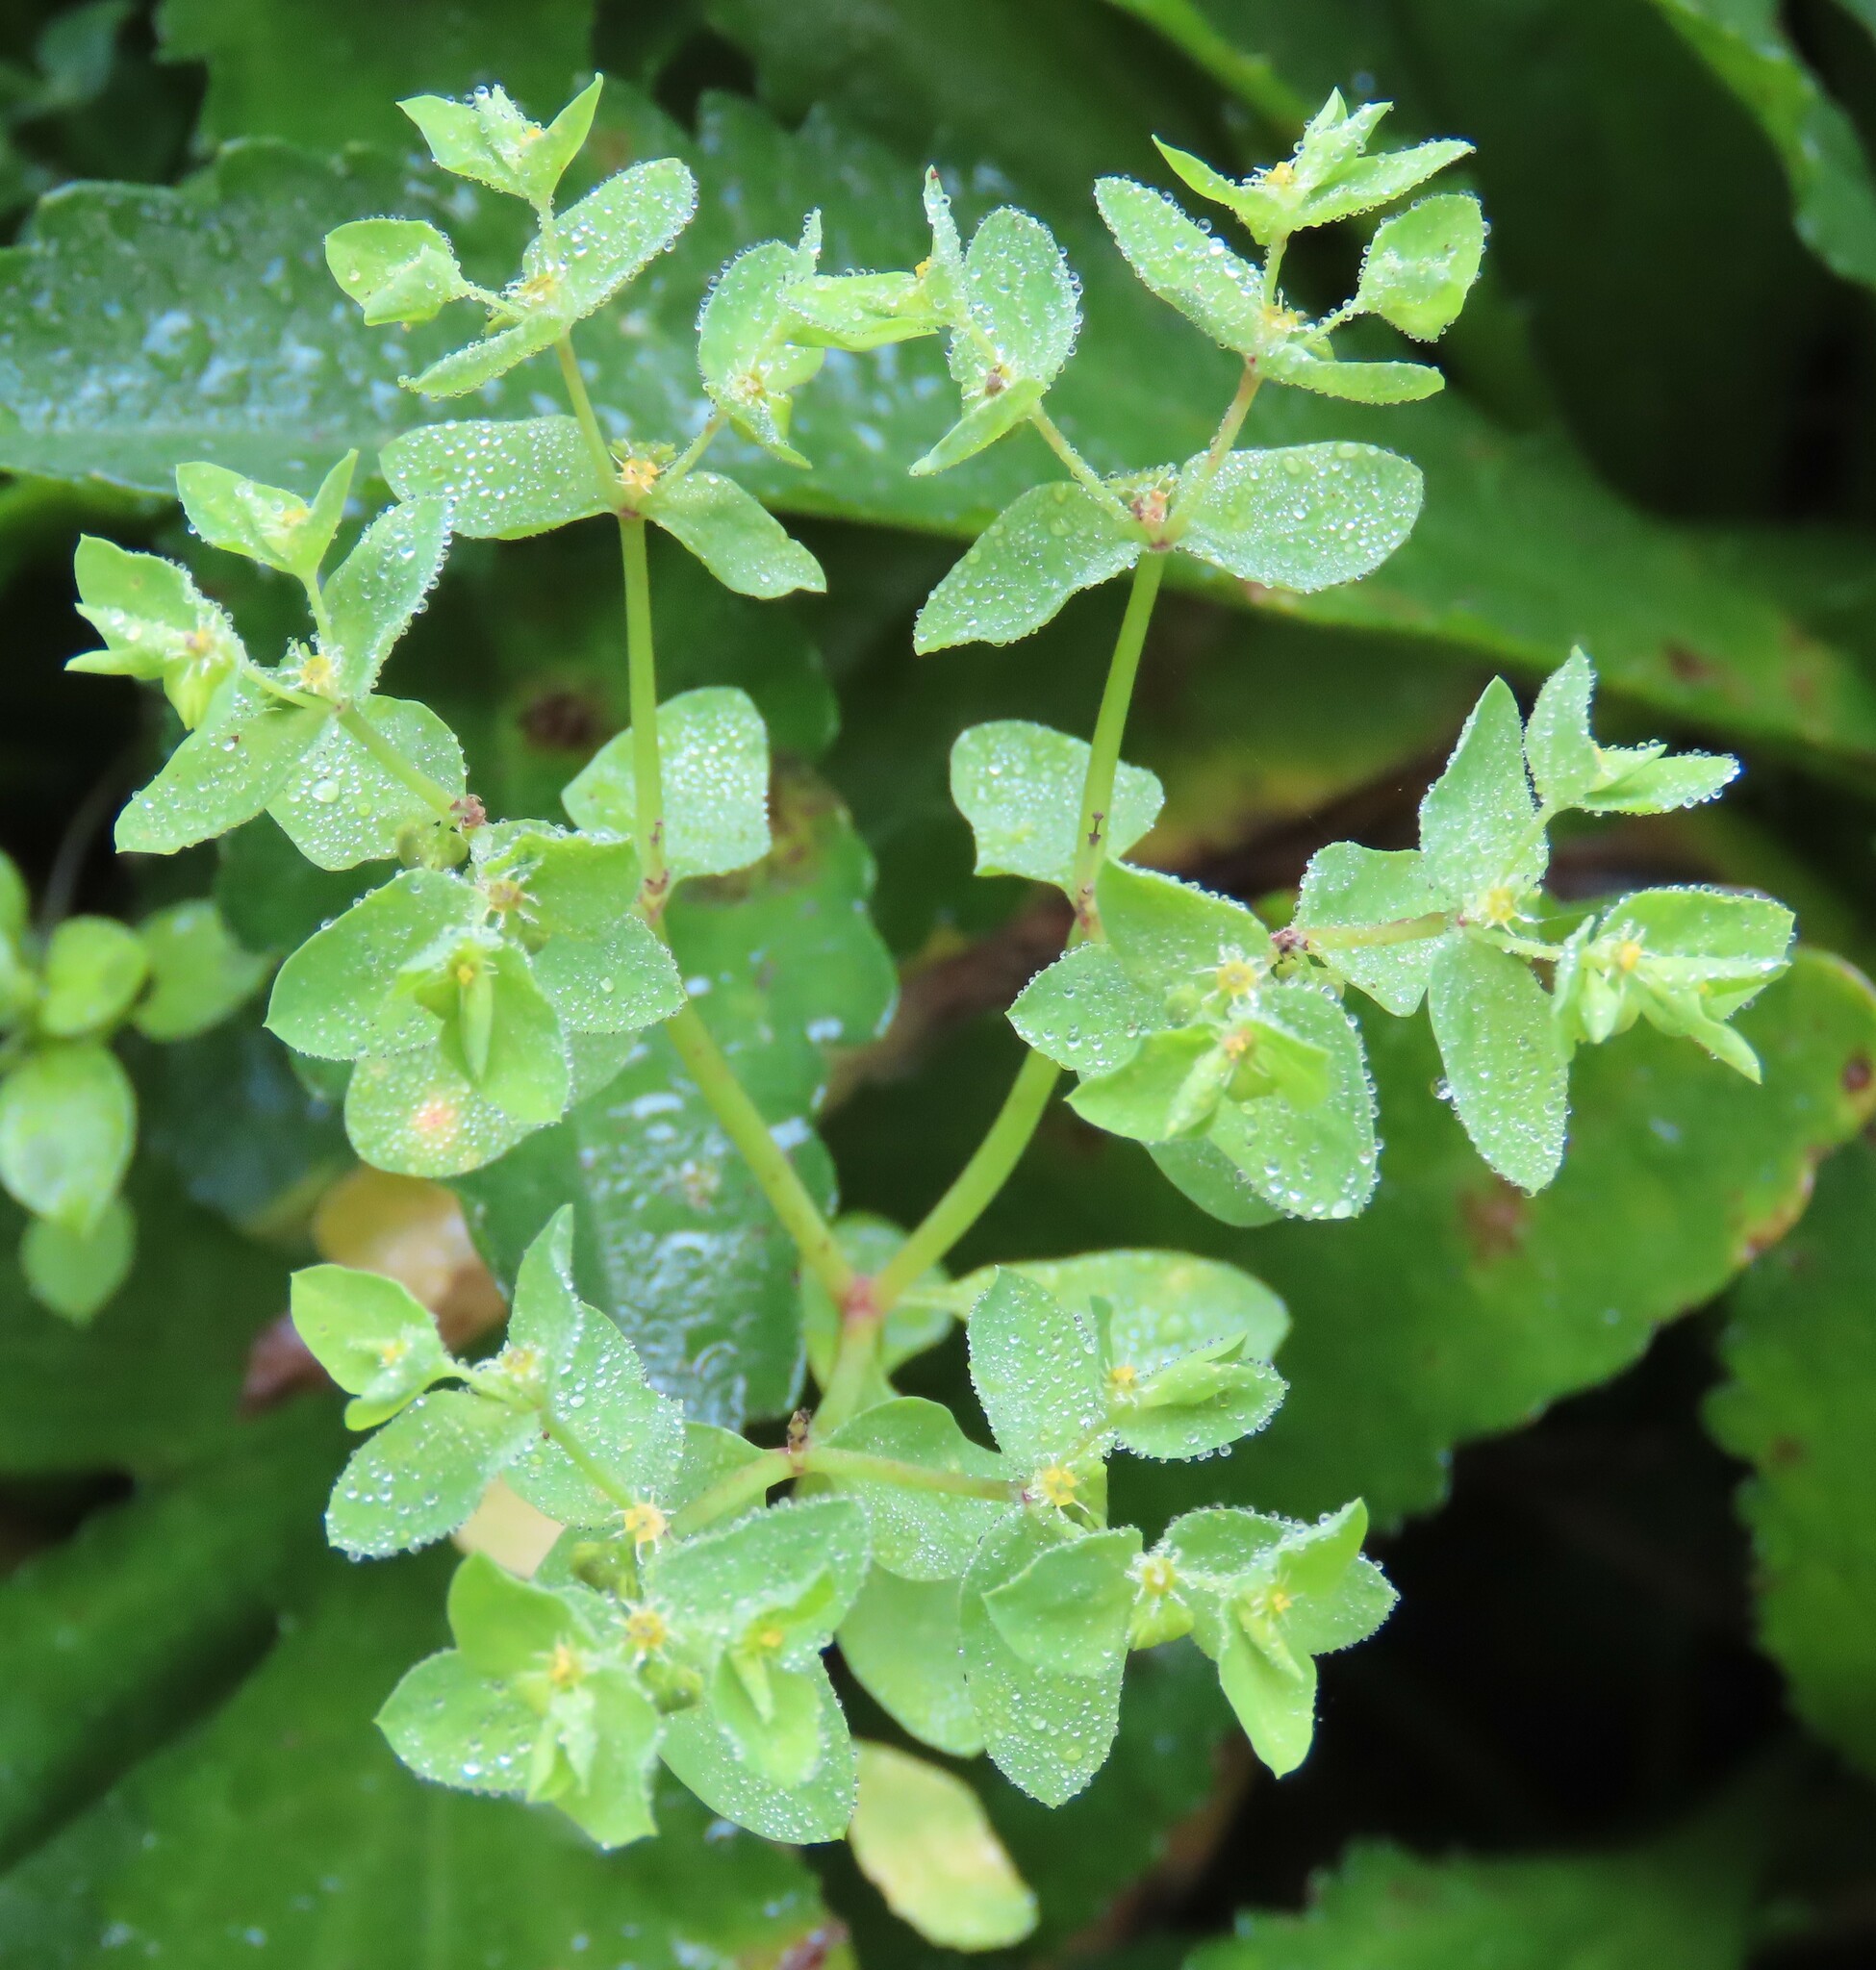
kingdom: Plantae
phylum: Tracheophyta
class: Magnoliopsida
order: Malpighiales
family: Euphorbiaceae
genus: Euphorbia
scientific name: Euphorbia peplus
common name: Petty spurge
